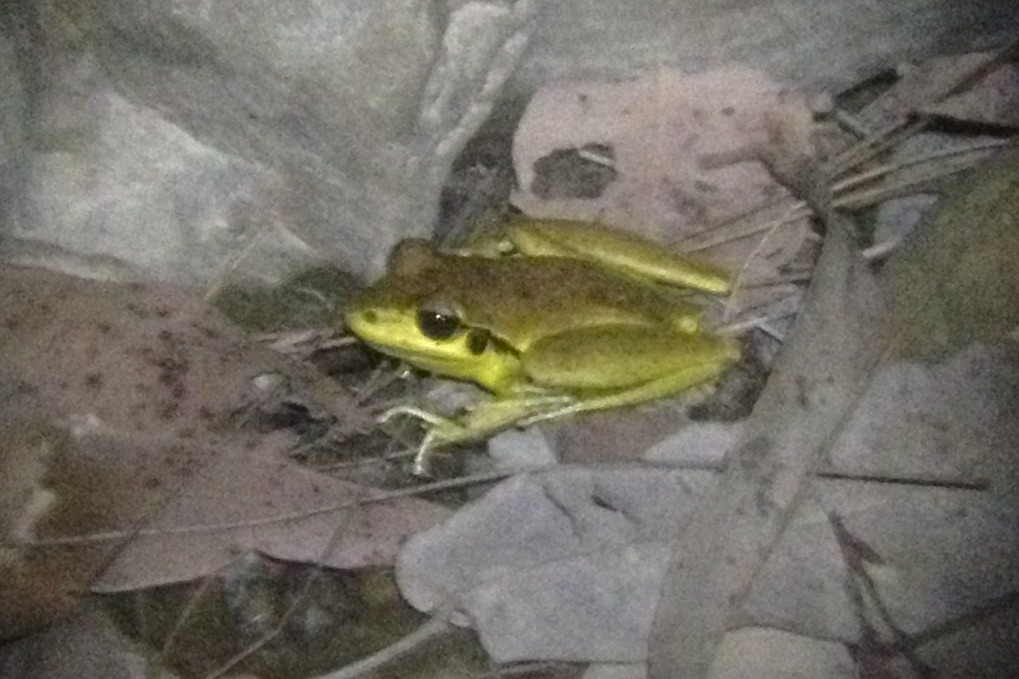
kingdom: Animalia
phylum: Chordata
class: Amphibia
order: Anura
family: Pelodryadidae
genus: Ranoidea
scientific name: Ranoidea wilcoxii
